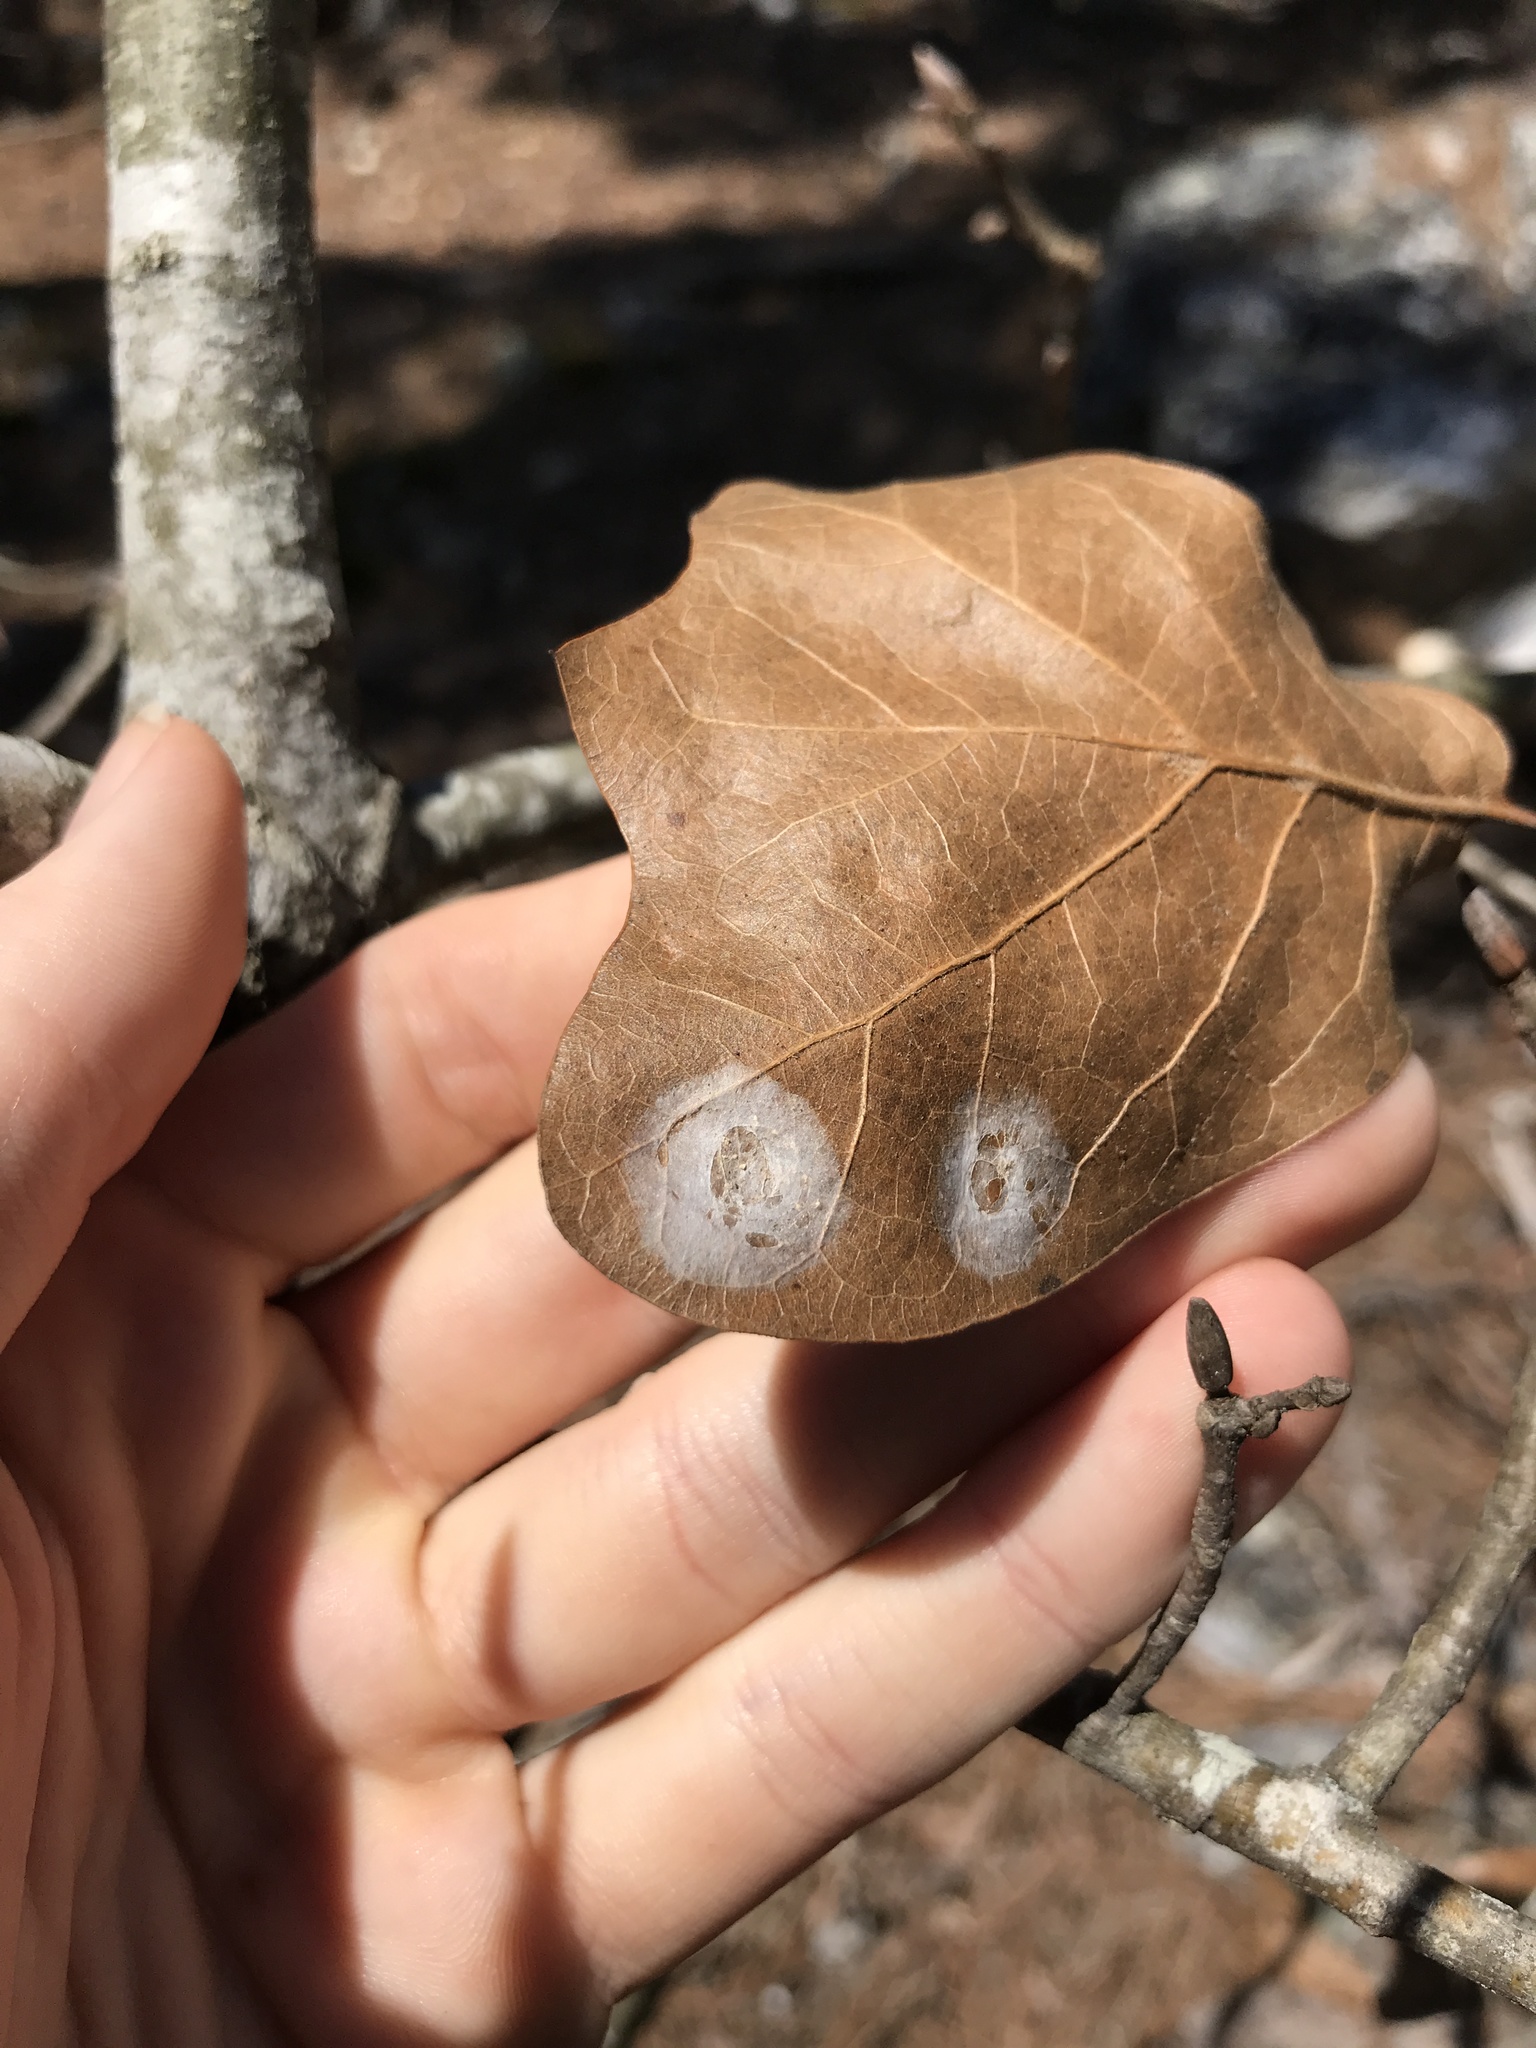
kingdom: Plantae
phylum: Tracheophyta
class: Magnoliopsida
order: Fagales
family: Fagaceae
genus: Quercus
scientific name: Quercus marilandica
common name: Blackjack oak
